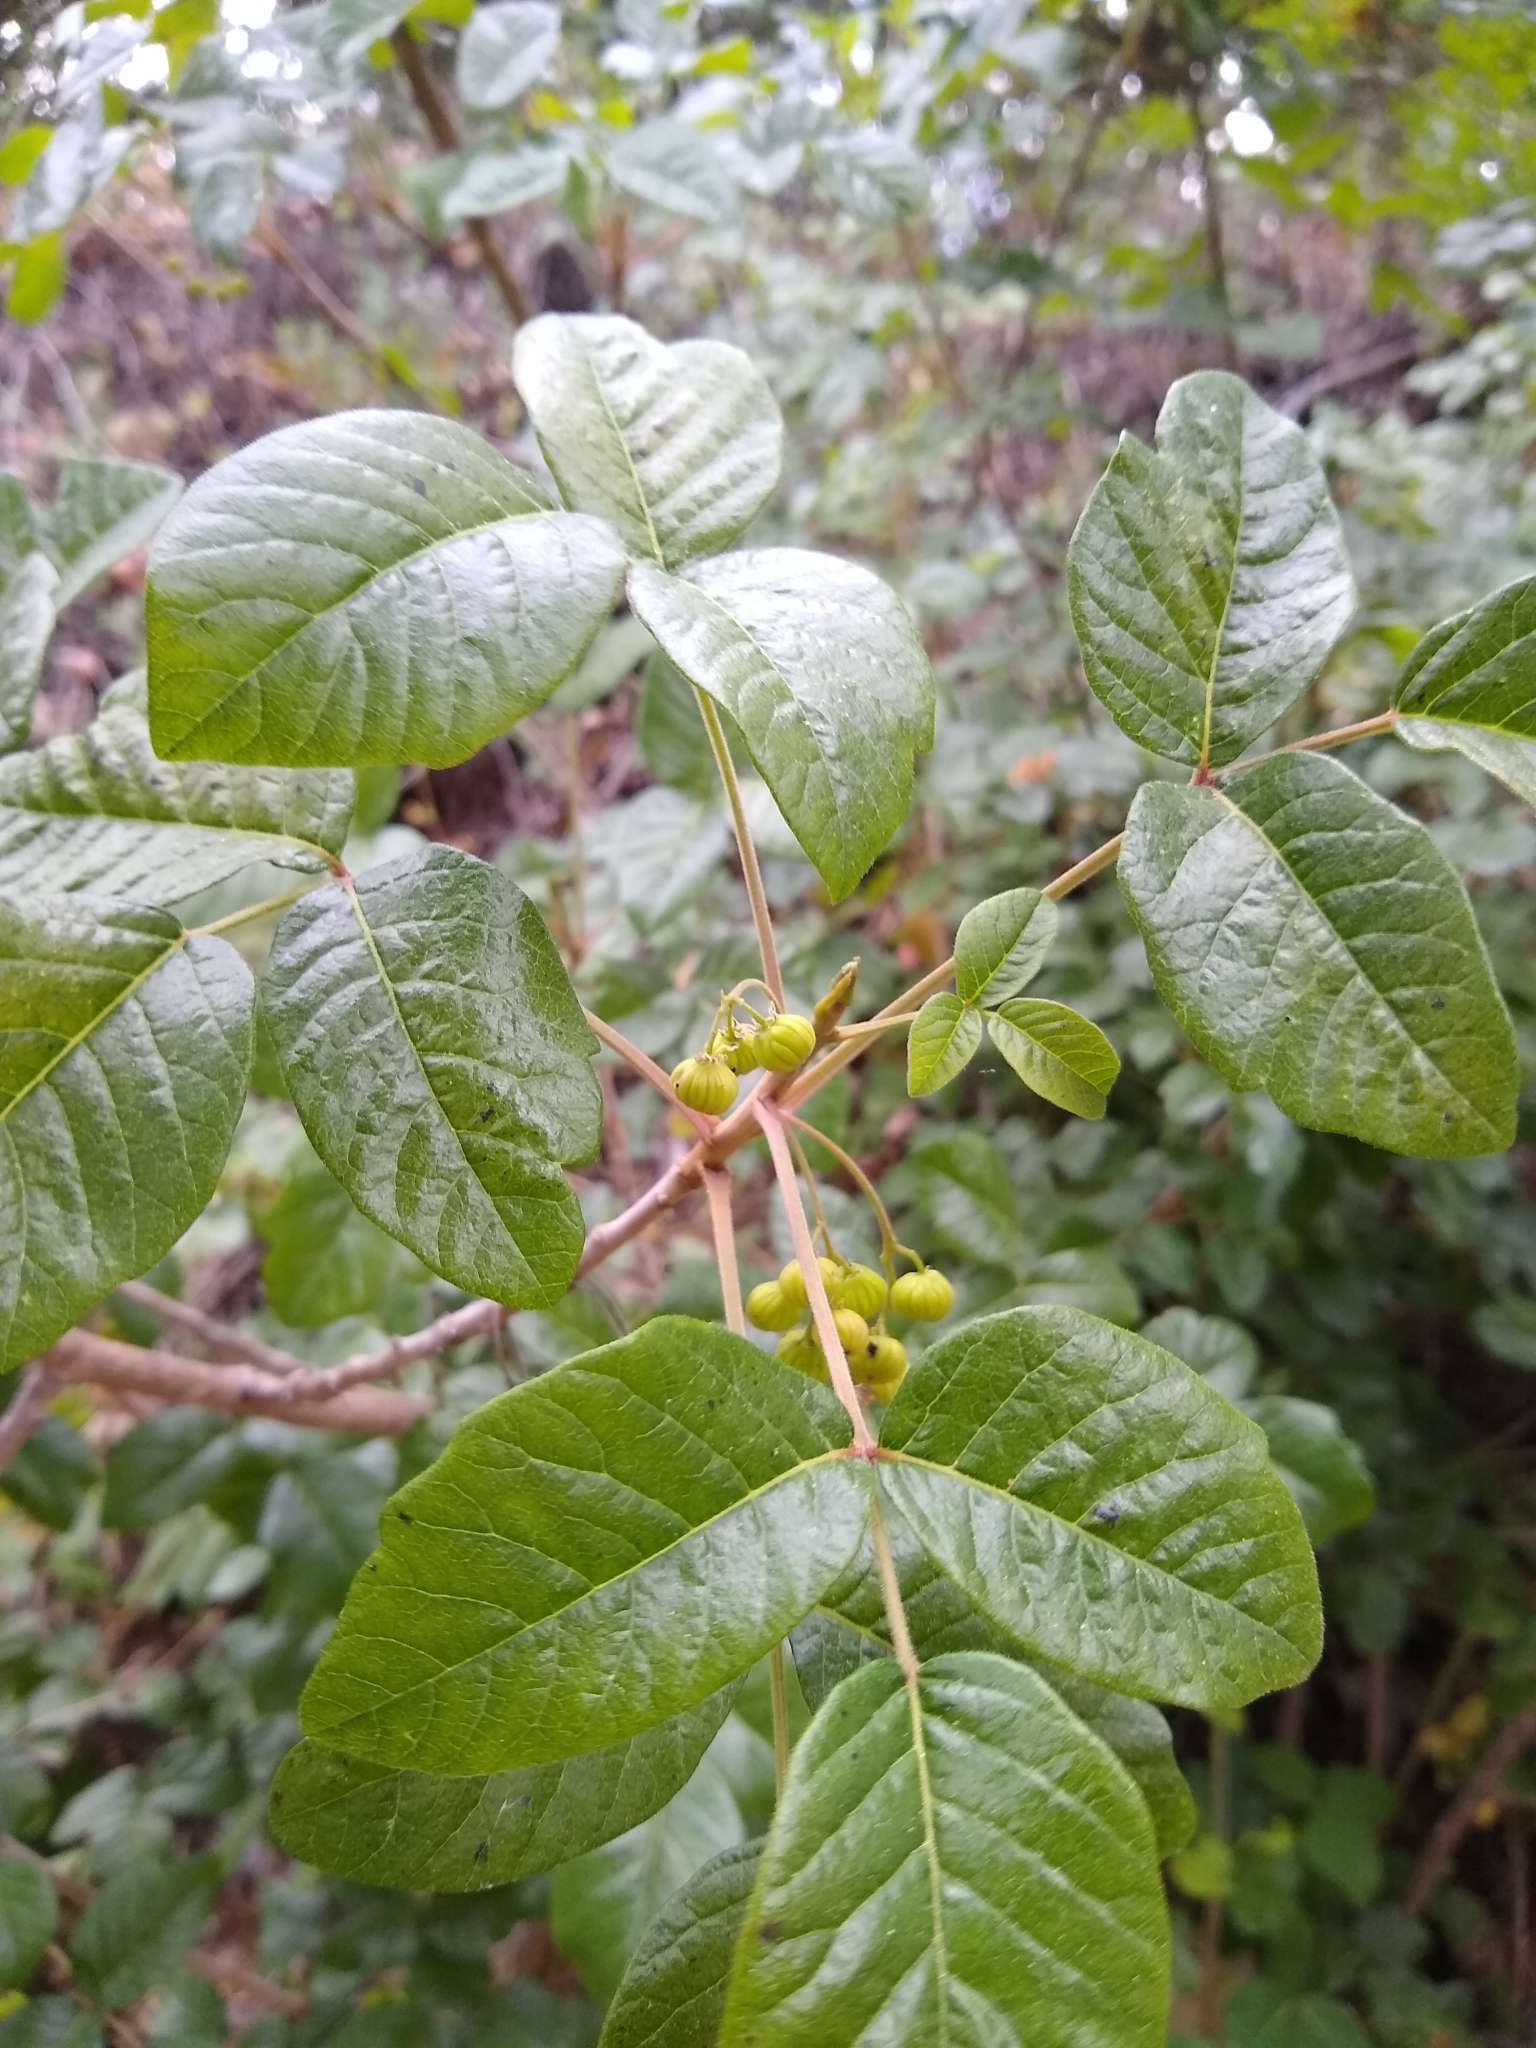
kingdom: Plantae
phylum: Tracheophyta
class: Magnoliopsida
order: Sapindales
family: Anacardiaceae
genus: Toxicodendron
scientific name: Toxicodendron diversilobum
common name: Pacific poison-oak
